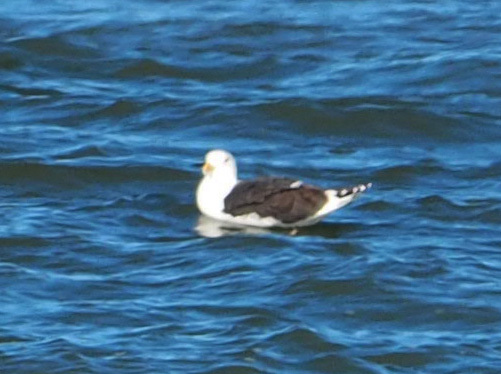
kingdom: Animalia
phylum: Chordata
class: Aves
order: Charadriiformes
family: Laridae
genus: Larus
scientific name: Larus marinus
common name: Great black-backed gull
